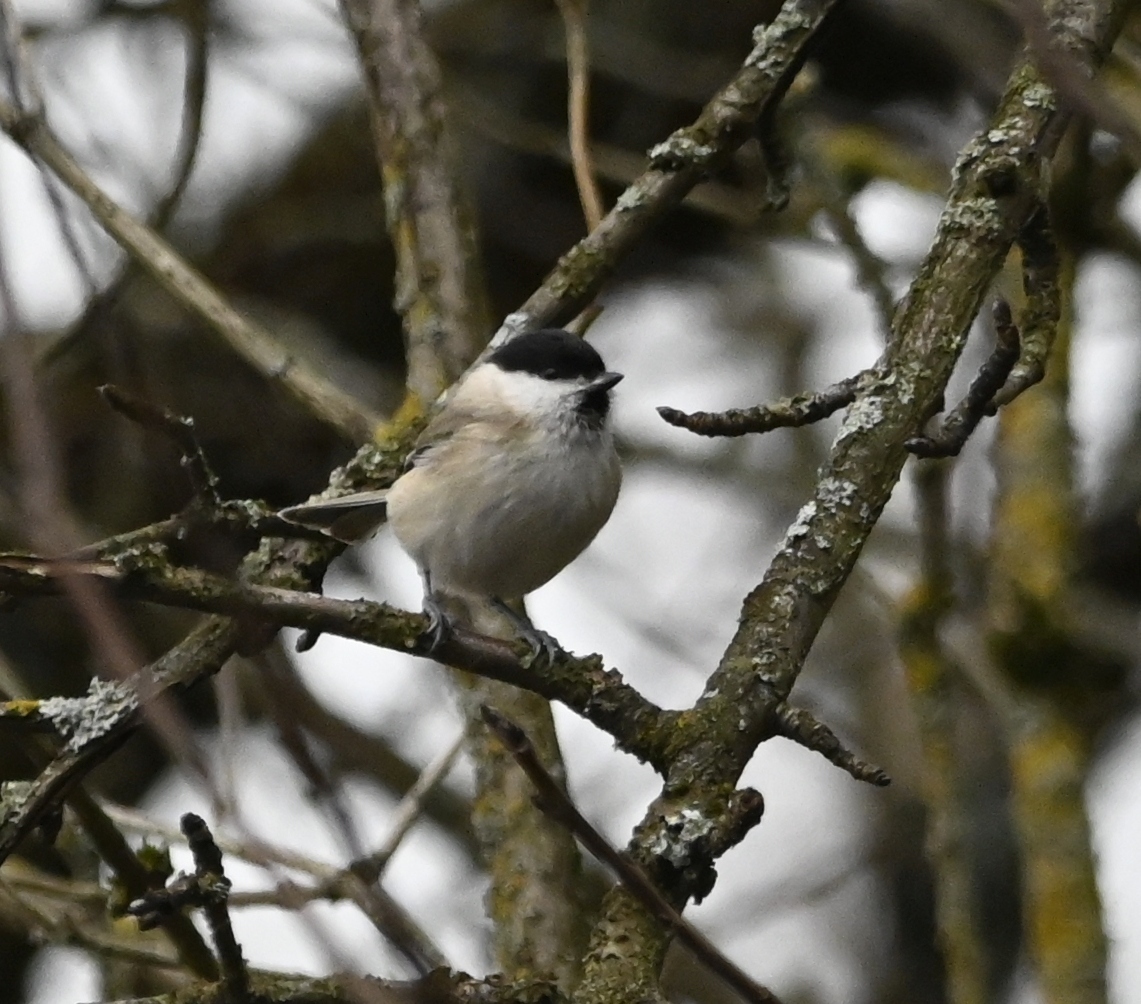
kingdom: Animalia
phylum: Chordata
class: Aves
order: Passeriformes
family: Paridae
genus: Poecile
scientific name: Poecile palustris
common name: Marsh tit
